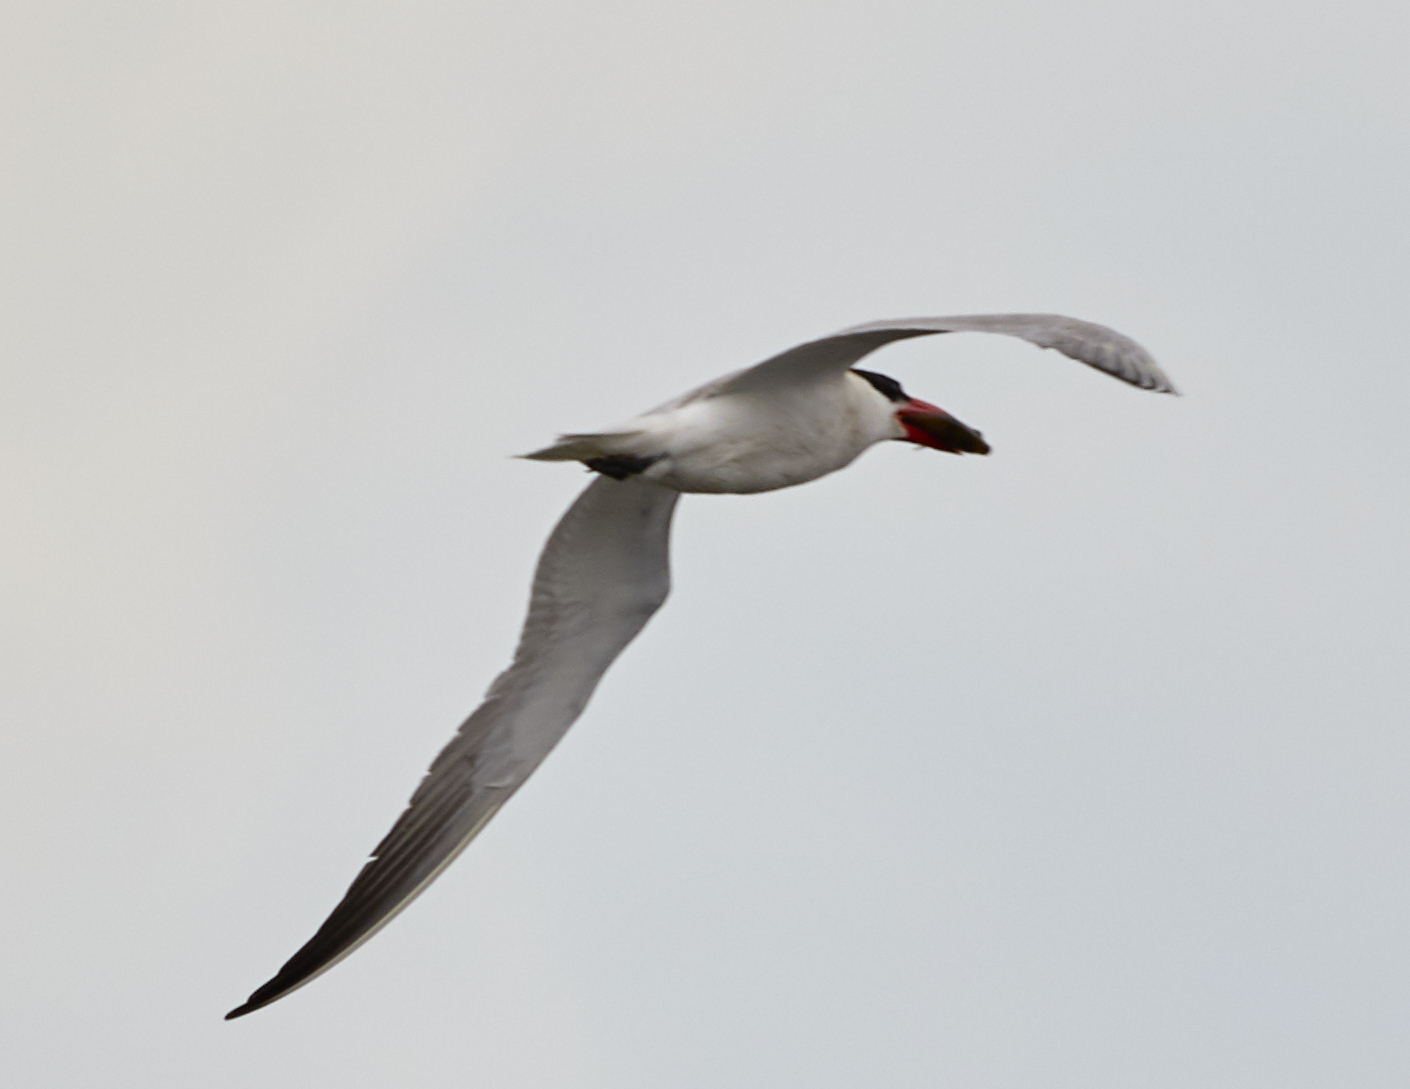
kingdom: Animalia
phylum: Chordata
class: Aves
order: Charadriiformes
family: Laridae
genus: Hydroprogne
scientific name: Hydroprogne caspia
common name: Caspian tern
